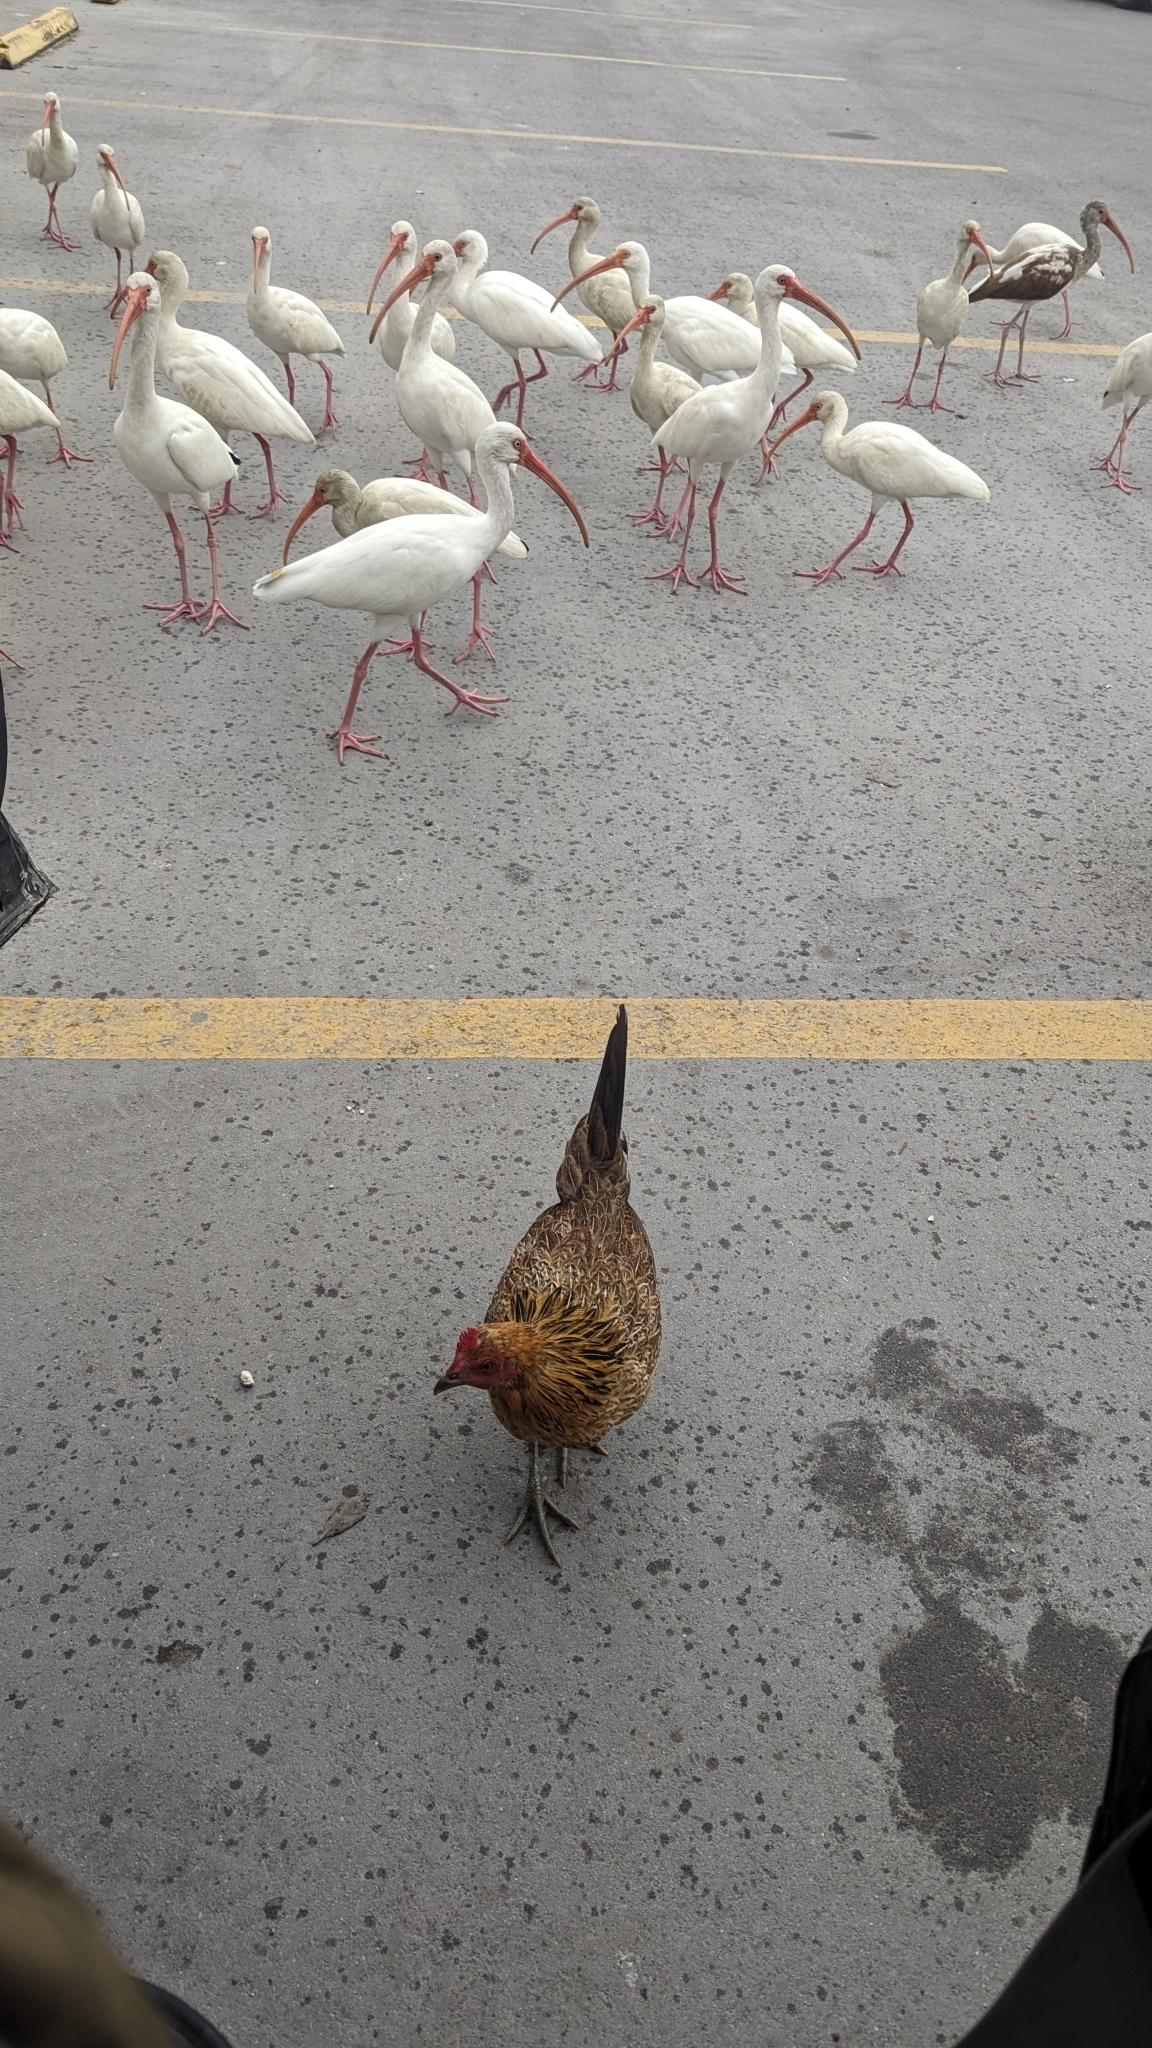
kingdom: Animalia
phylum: Chordata
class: Aves
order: Galliformes
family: Phasianidae
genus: Gallus
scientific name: Gallus gallus
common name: Red junglefowl
